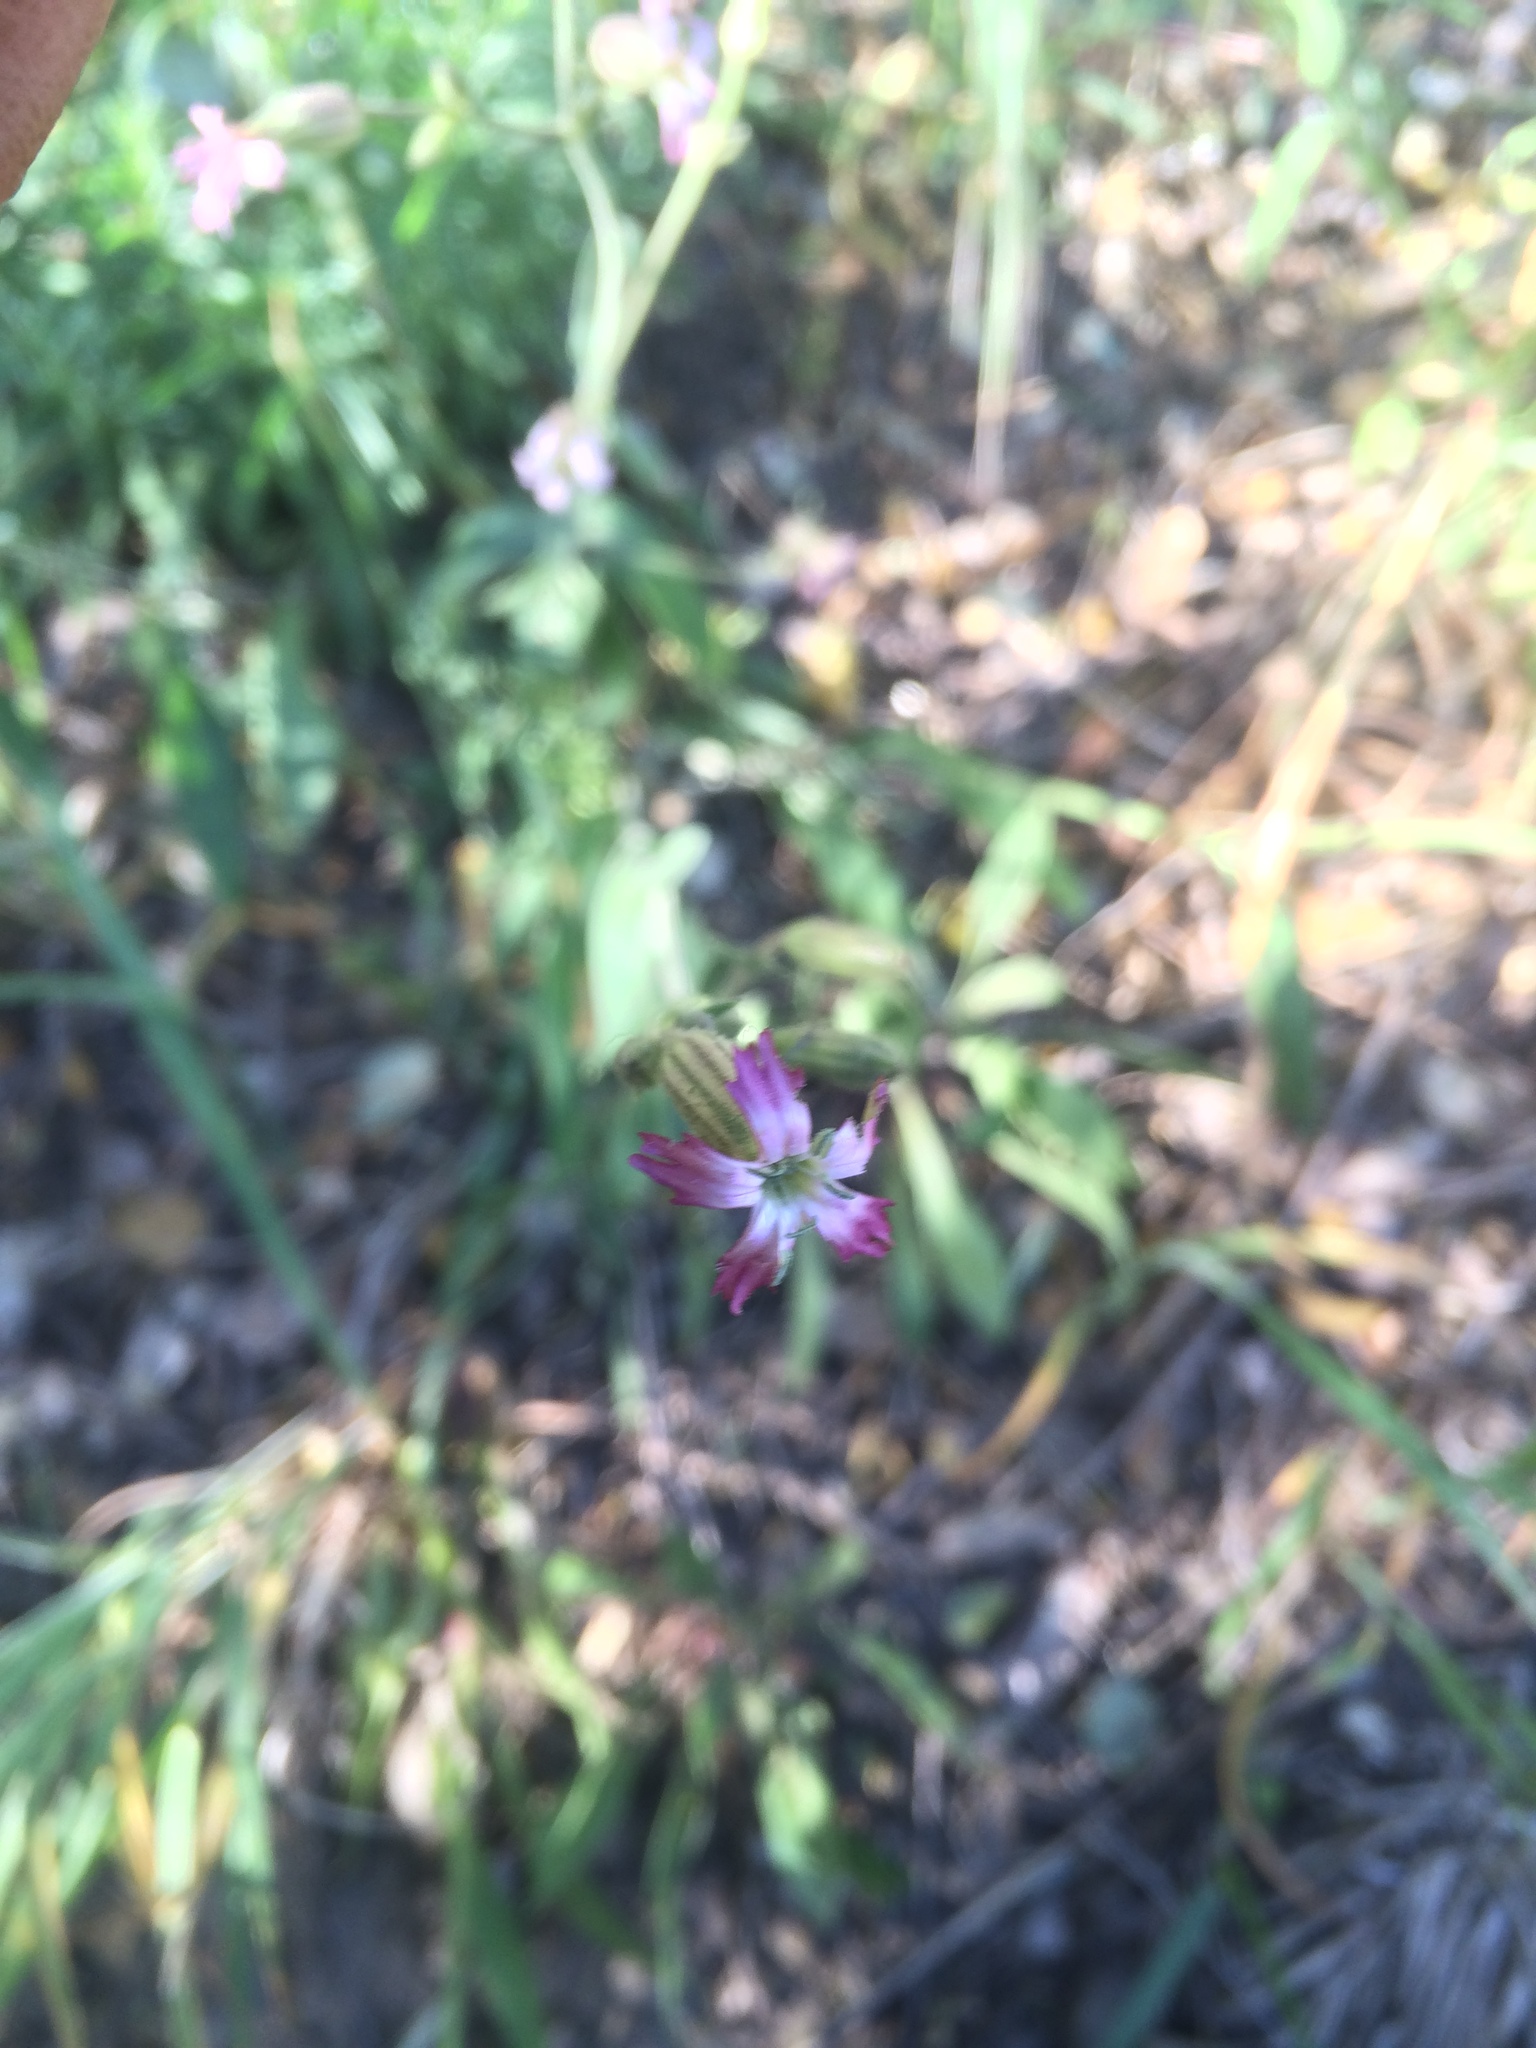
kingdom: Plantae
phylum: Tracheophyta
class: Magnoliopsida
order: Caryophyllales
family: Caryophyllaceae
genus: Silene
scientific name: Silene verecunda
